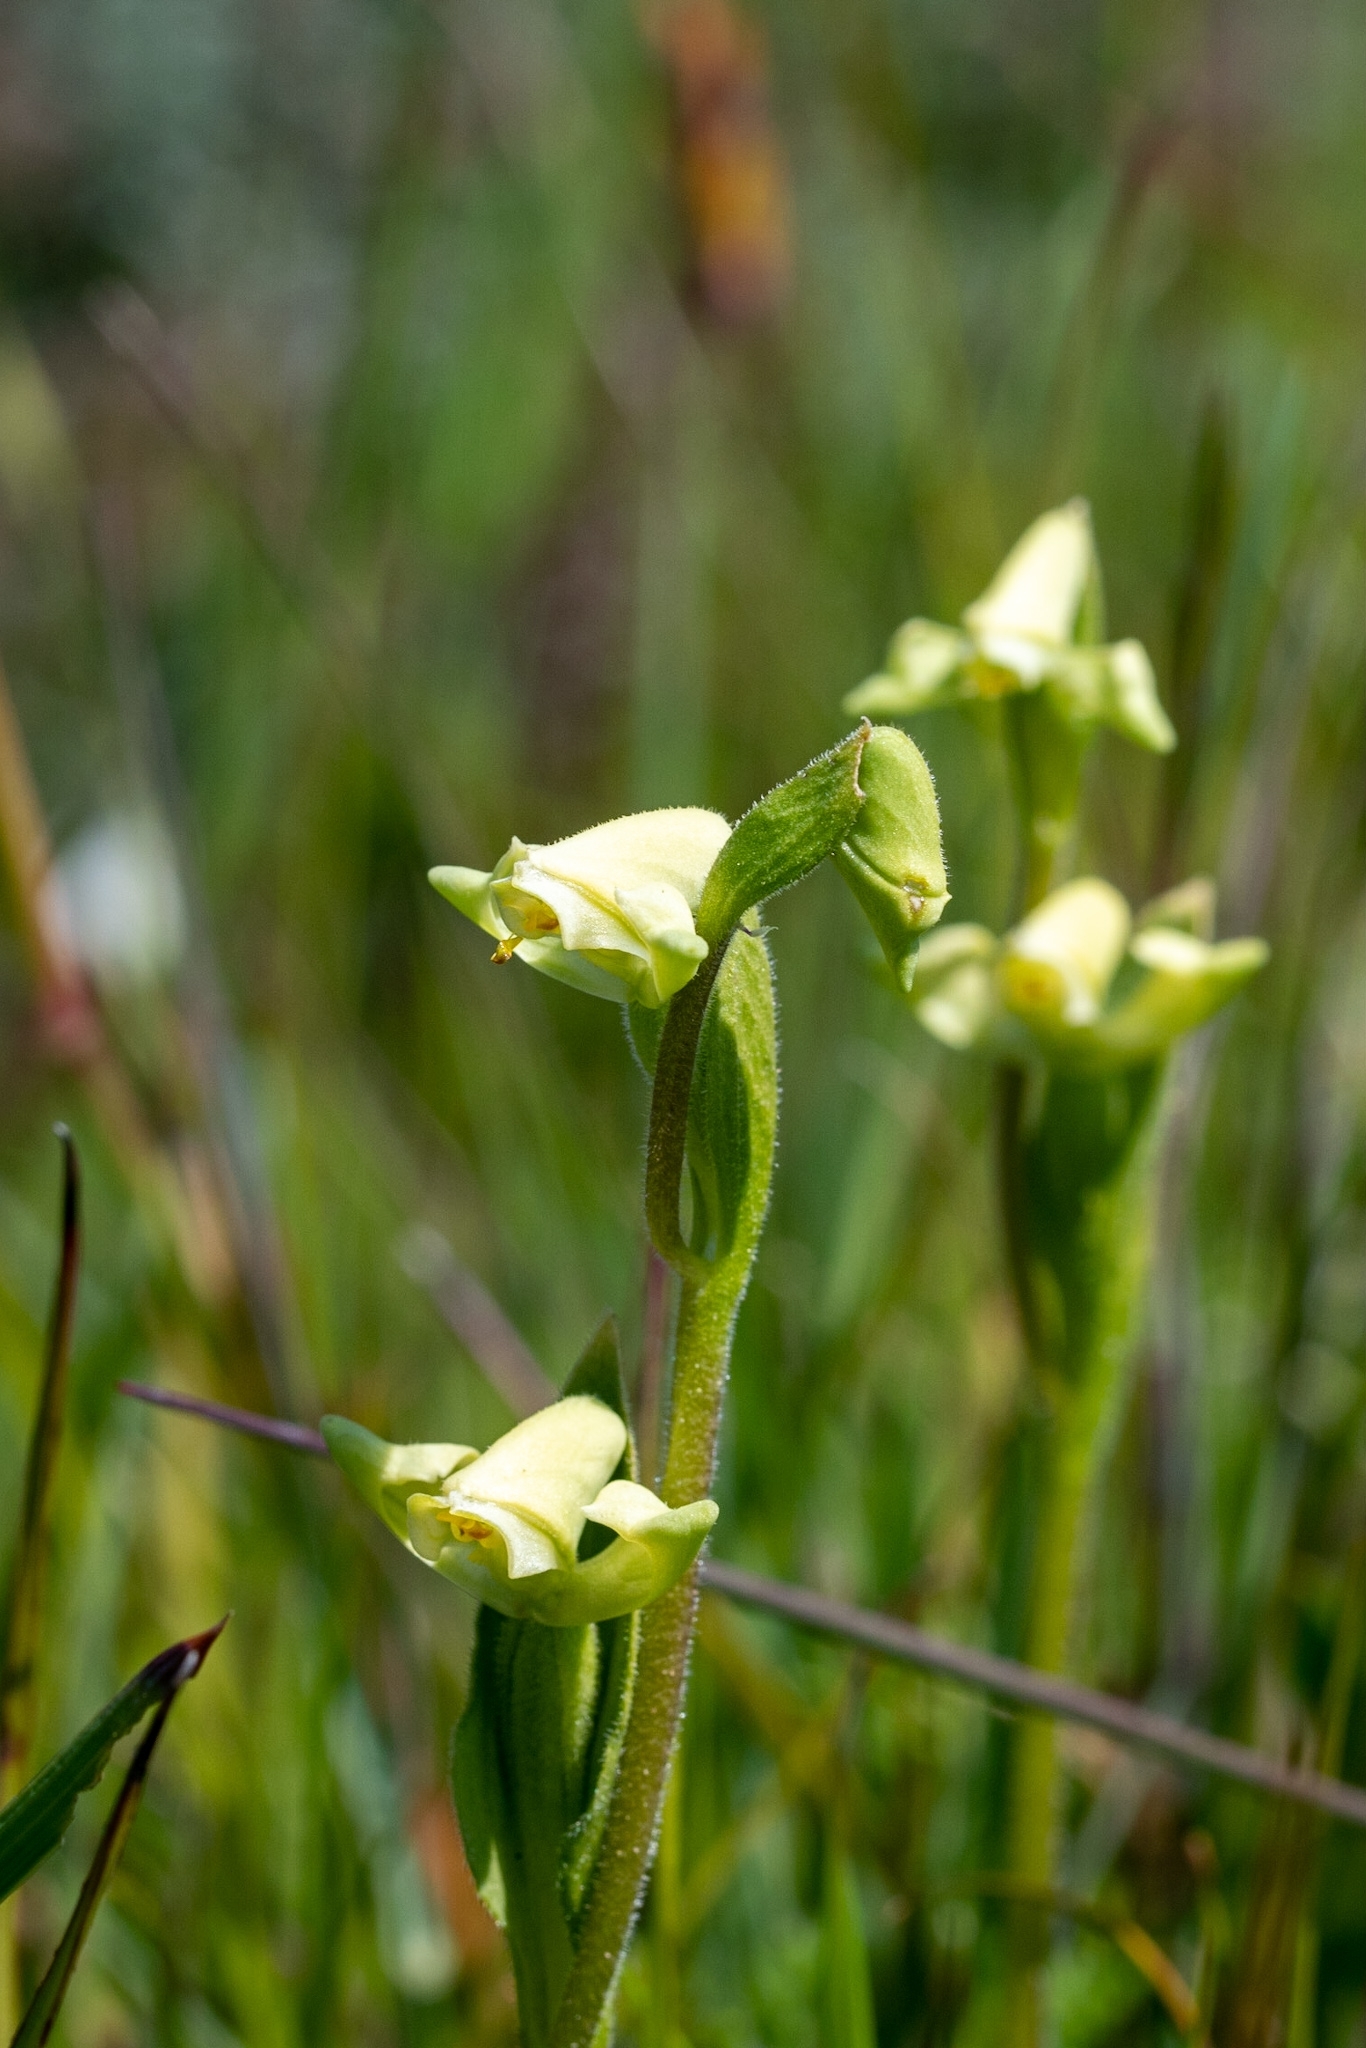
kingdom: Plantae
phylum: Tracheophyta
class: Liliopsida
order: Asparagales
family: Orchidaceae
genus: Disperis
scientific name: Disperis villosa
